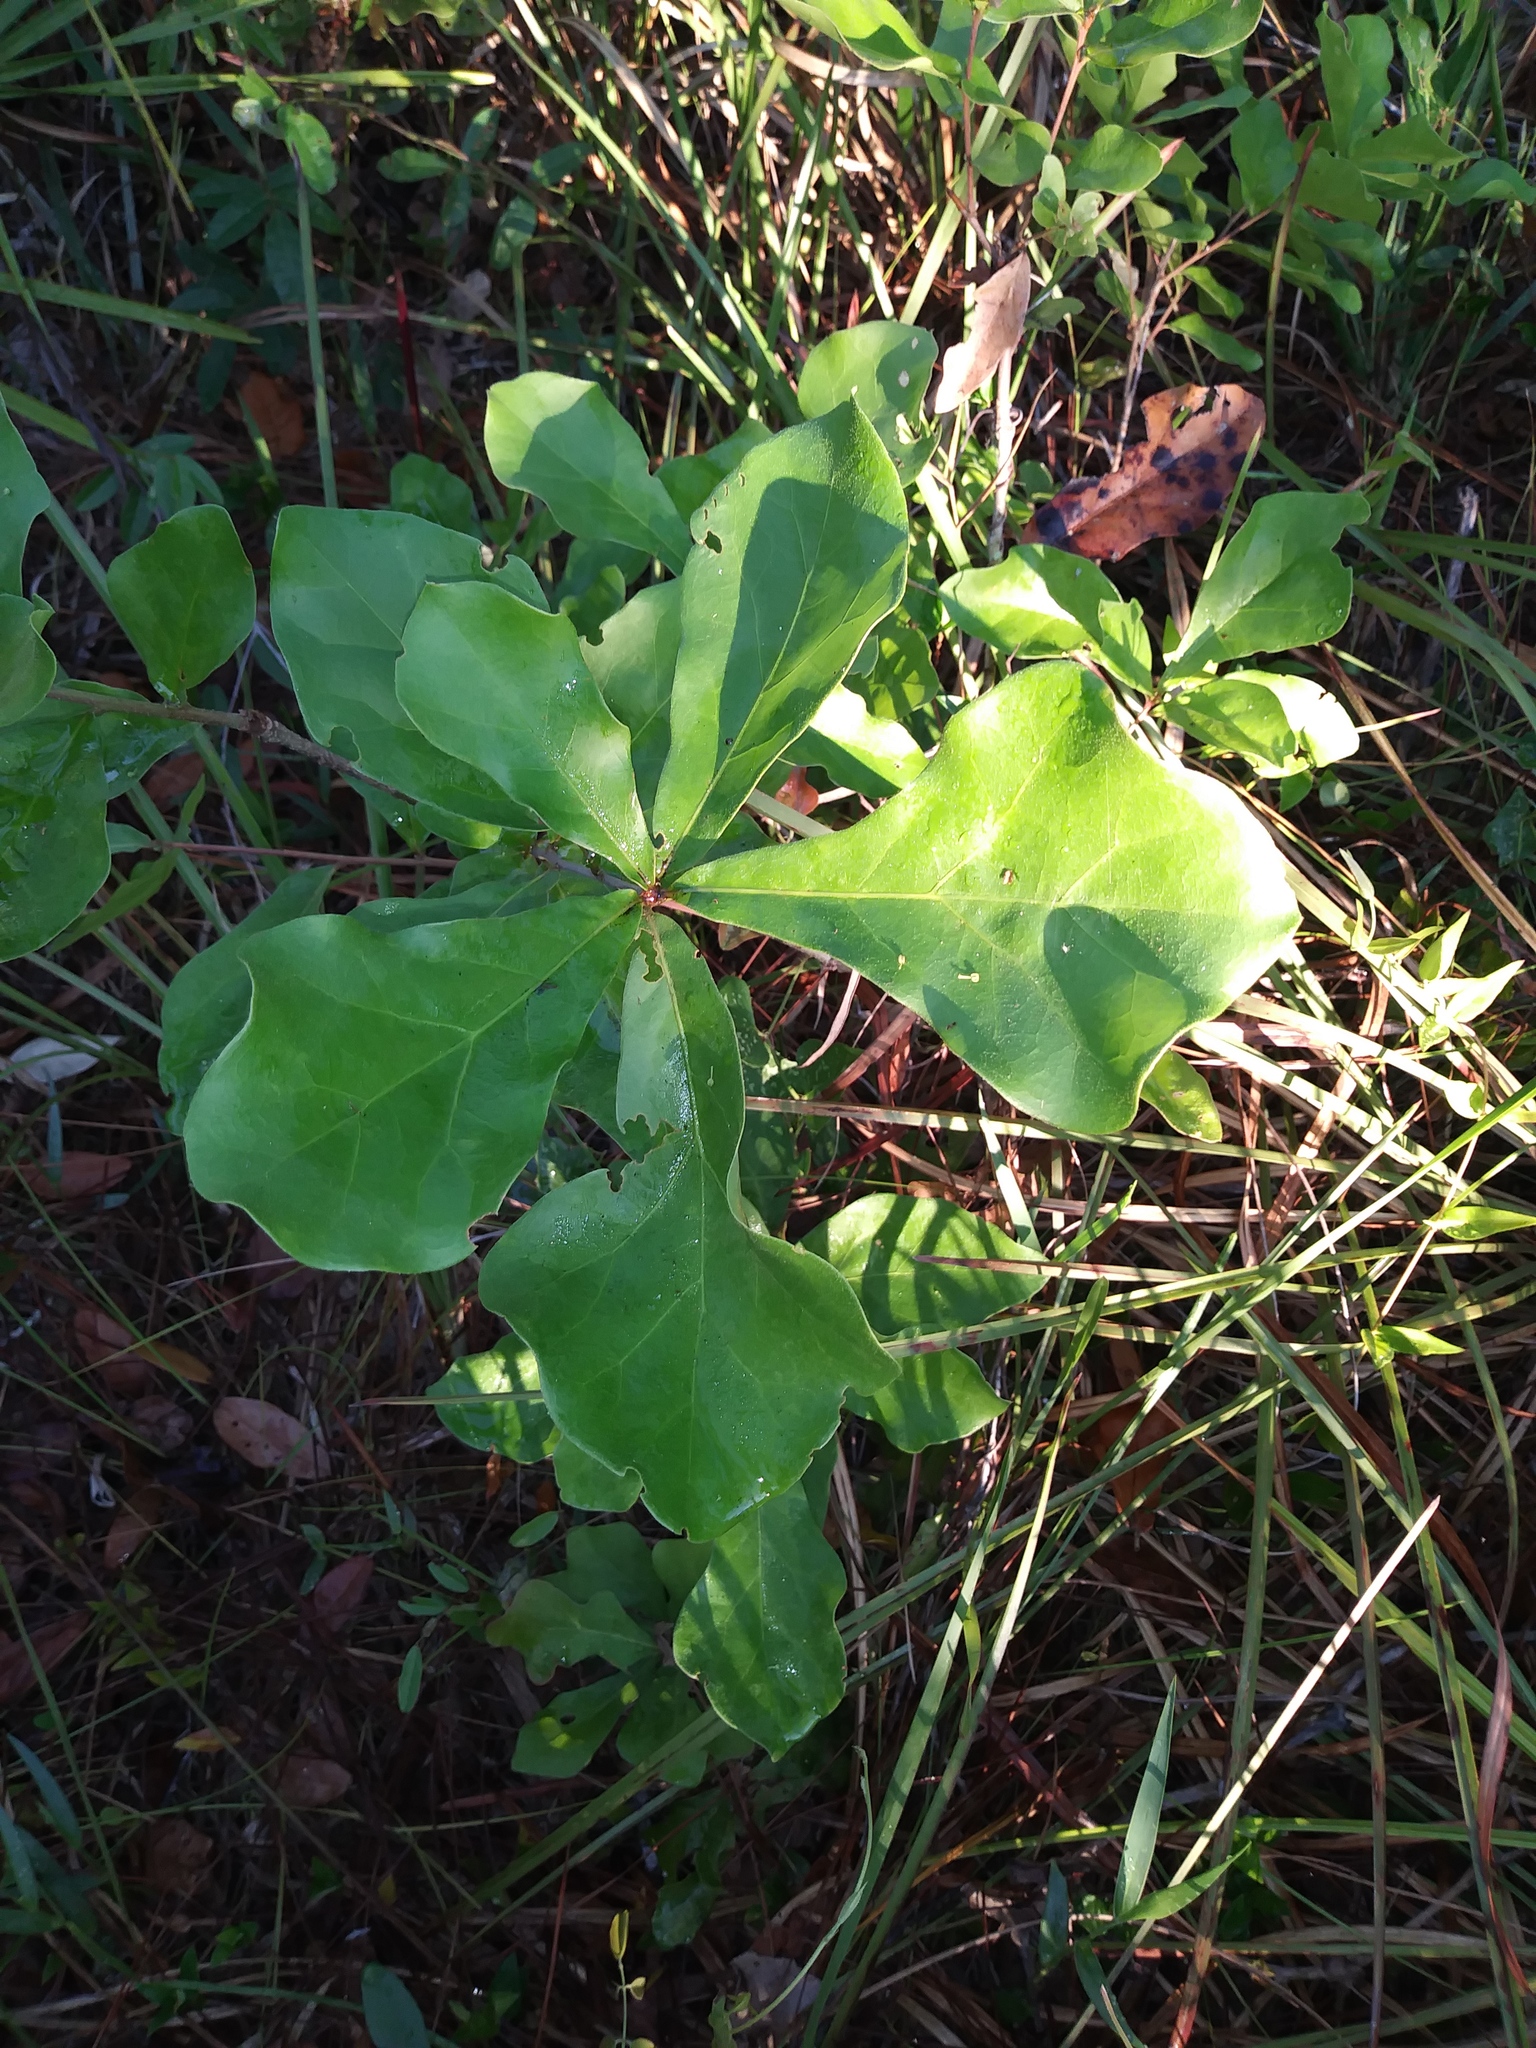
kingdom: Plantae
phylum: Tracheophyta
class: Magnoliopsida
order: Fagales
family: Fagaceae
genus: Quercus
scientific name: Quercus nigra
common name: Water oak
